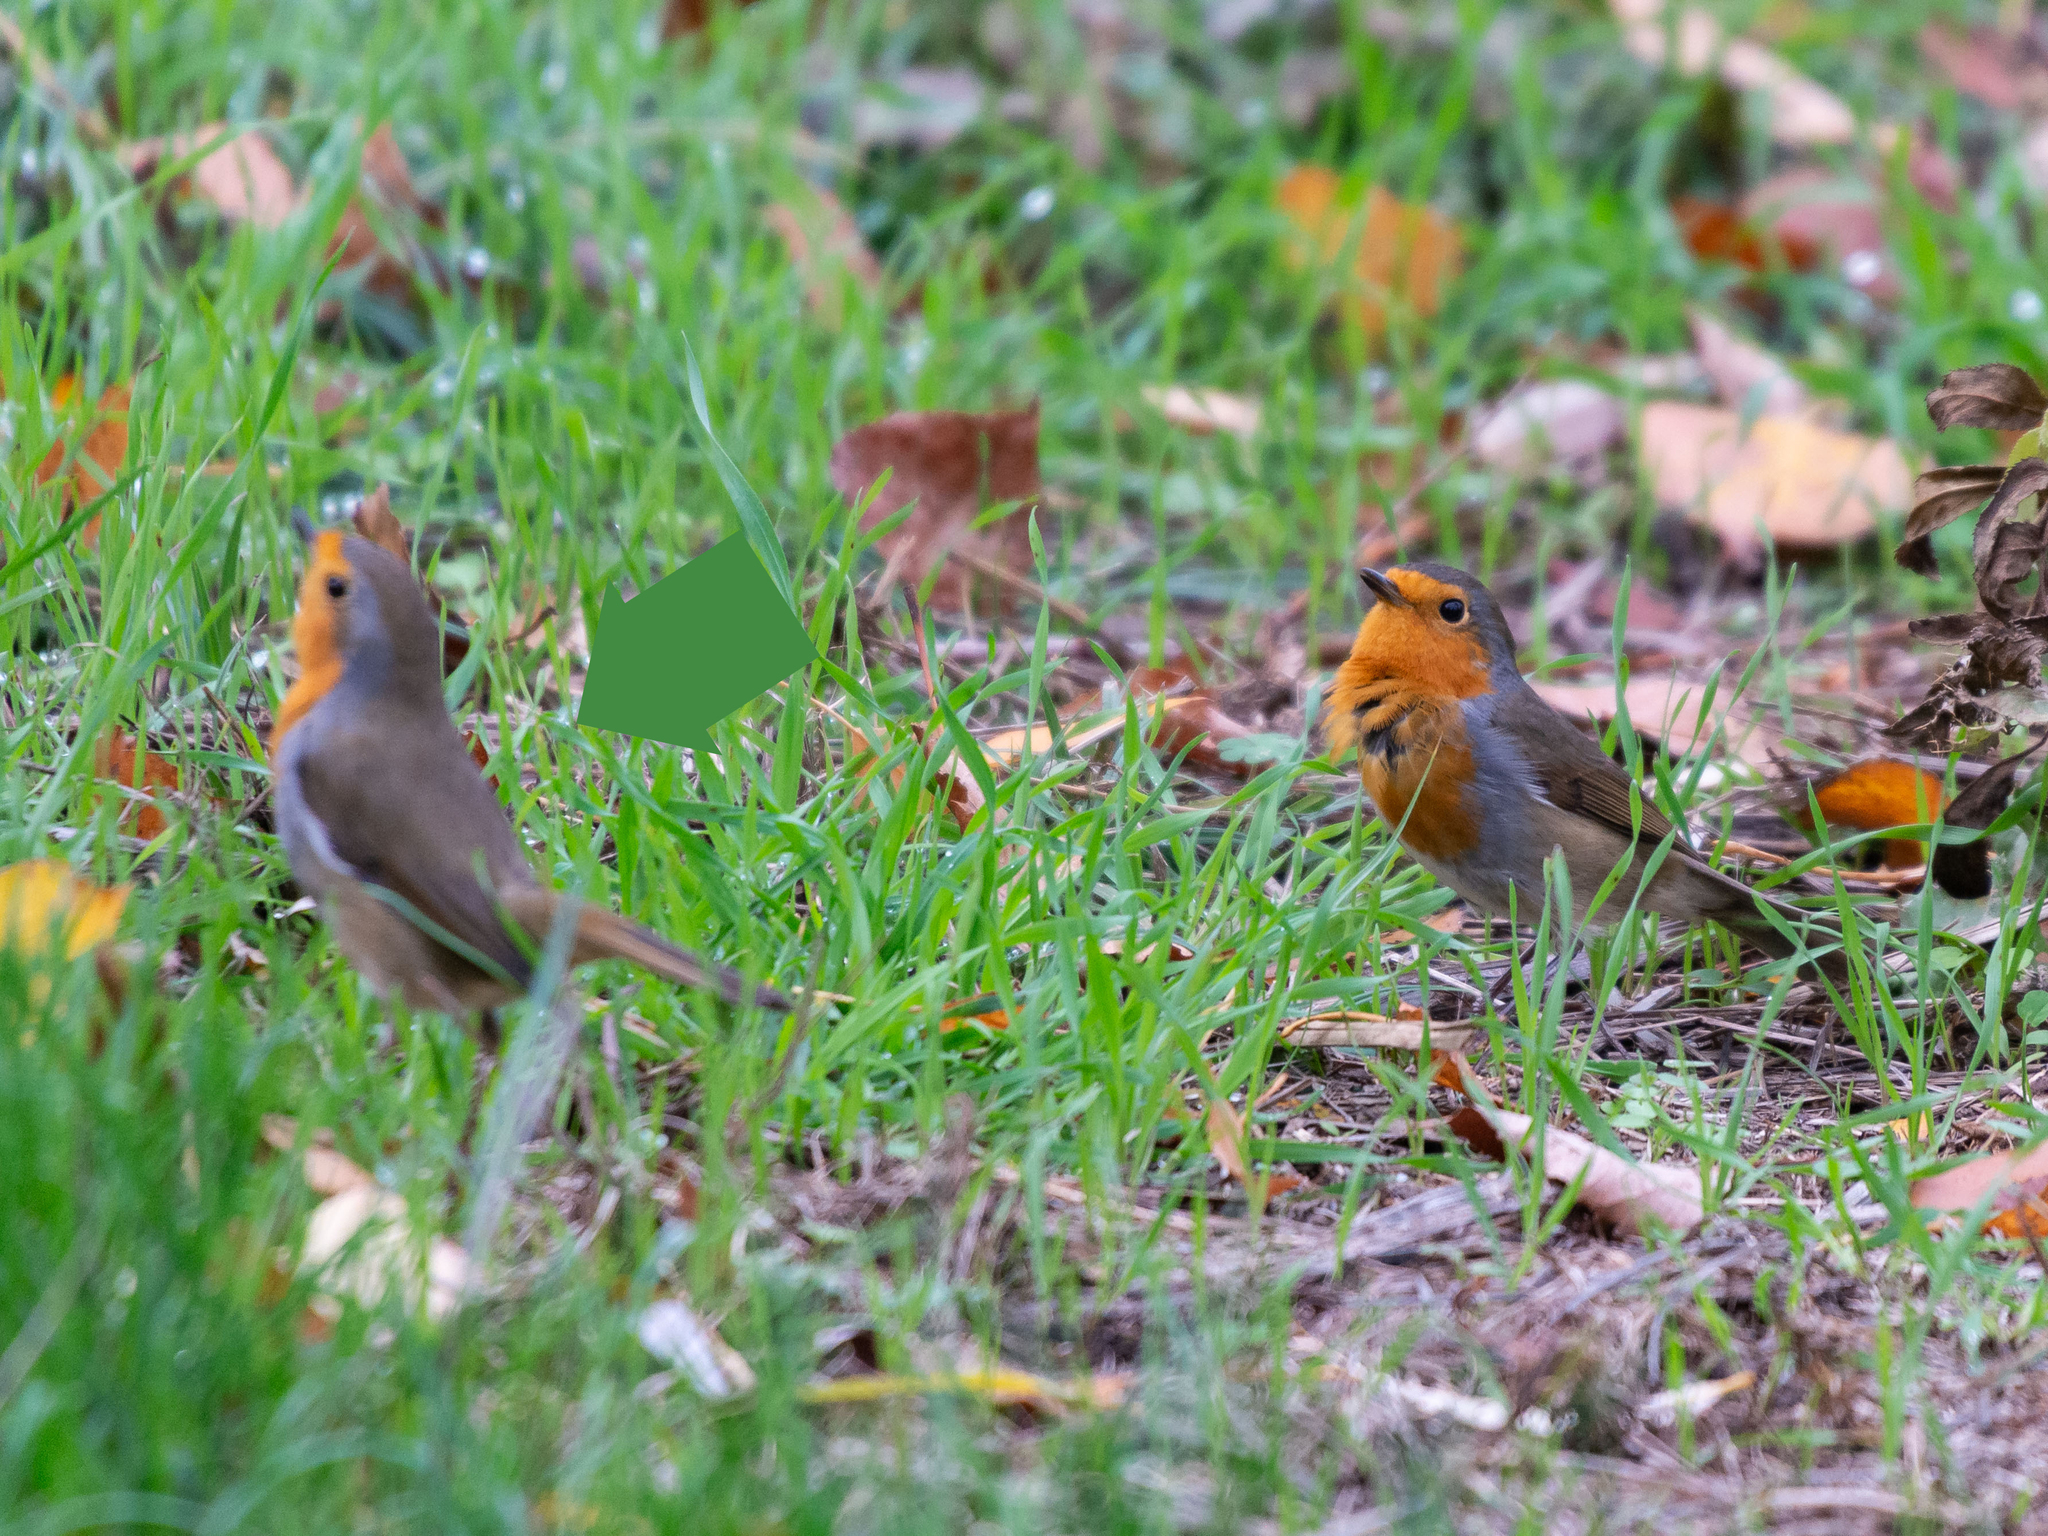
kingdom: Animalia
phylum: Chordata
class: Aves
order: Passeriformes
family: Muscicapidae
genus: Erithacus
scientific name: Erithacus rubecula
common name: European robin
